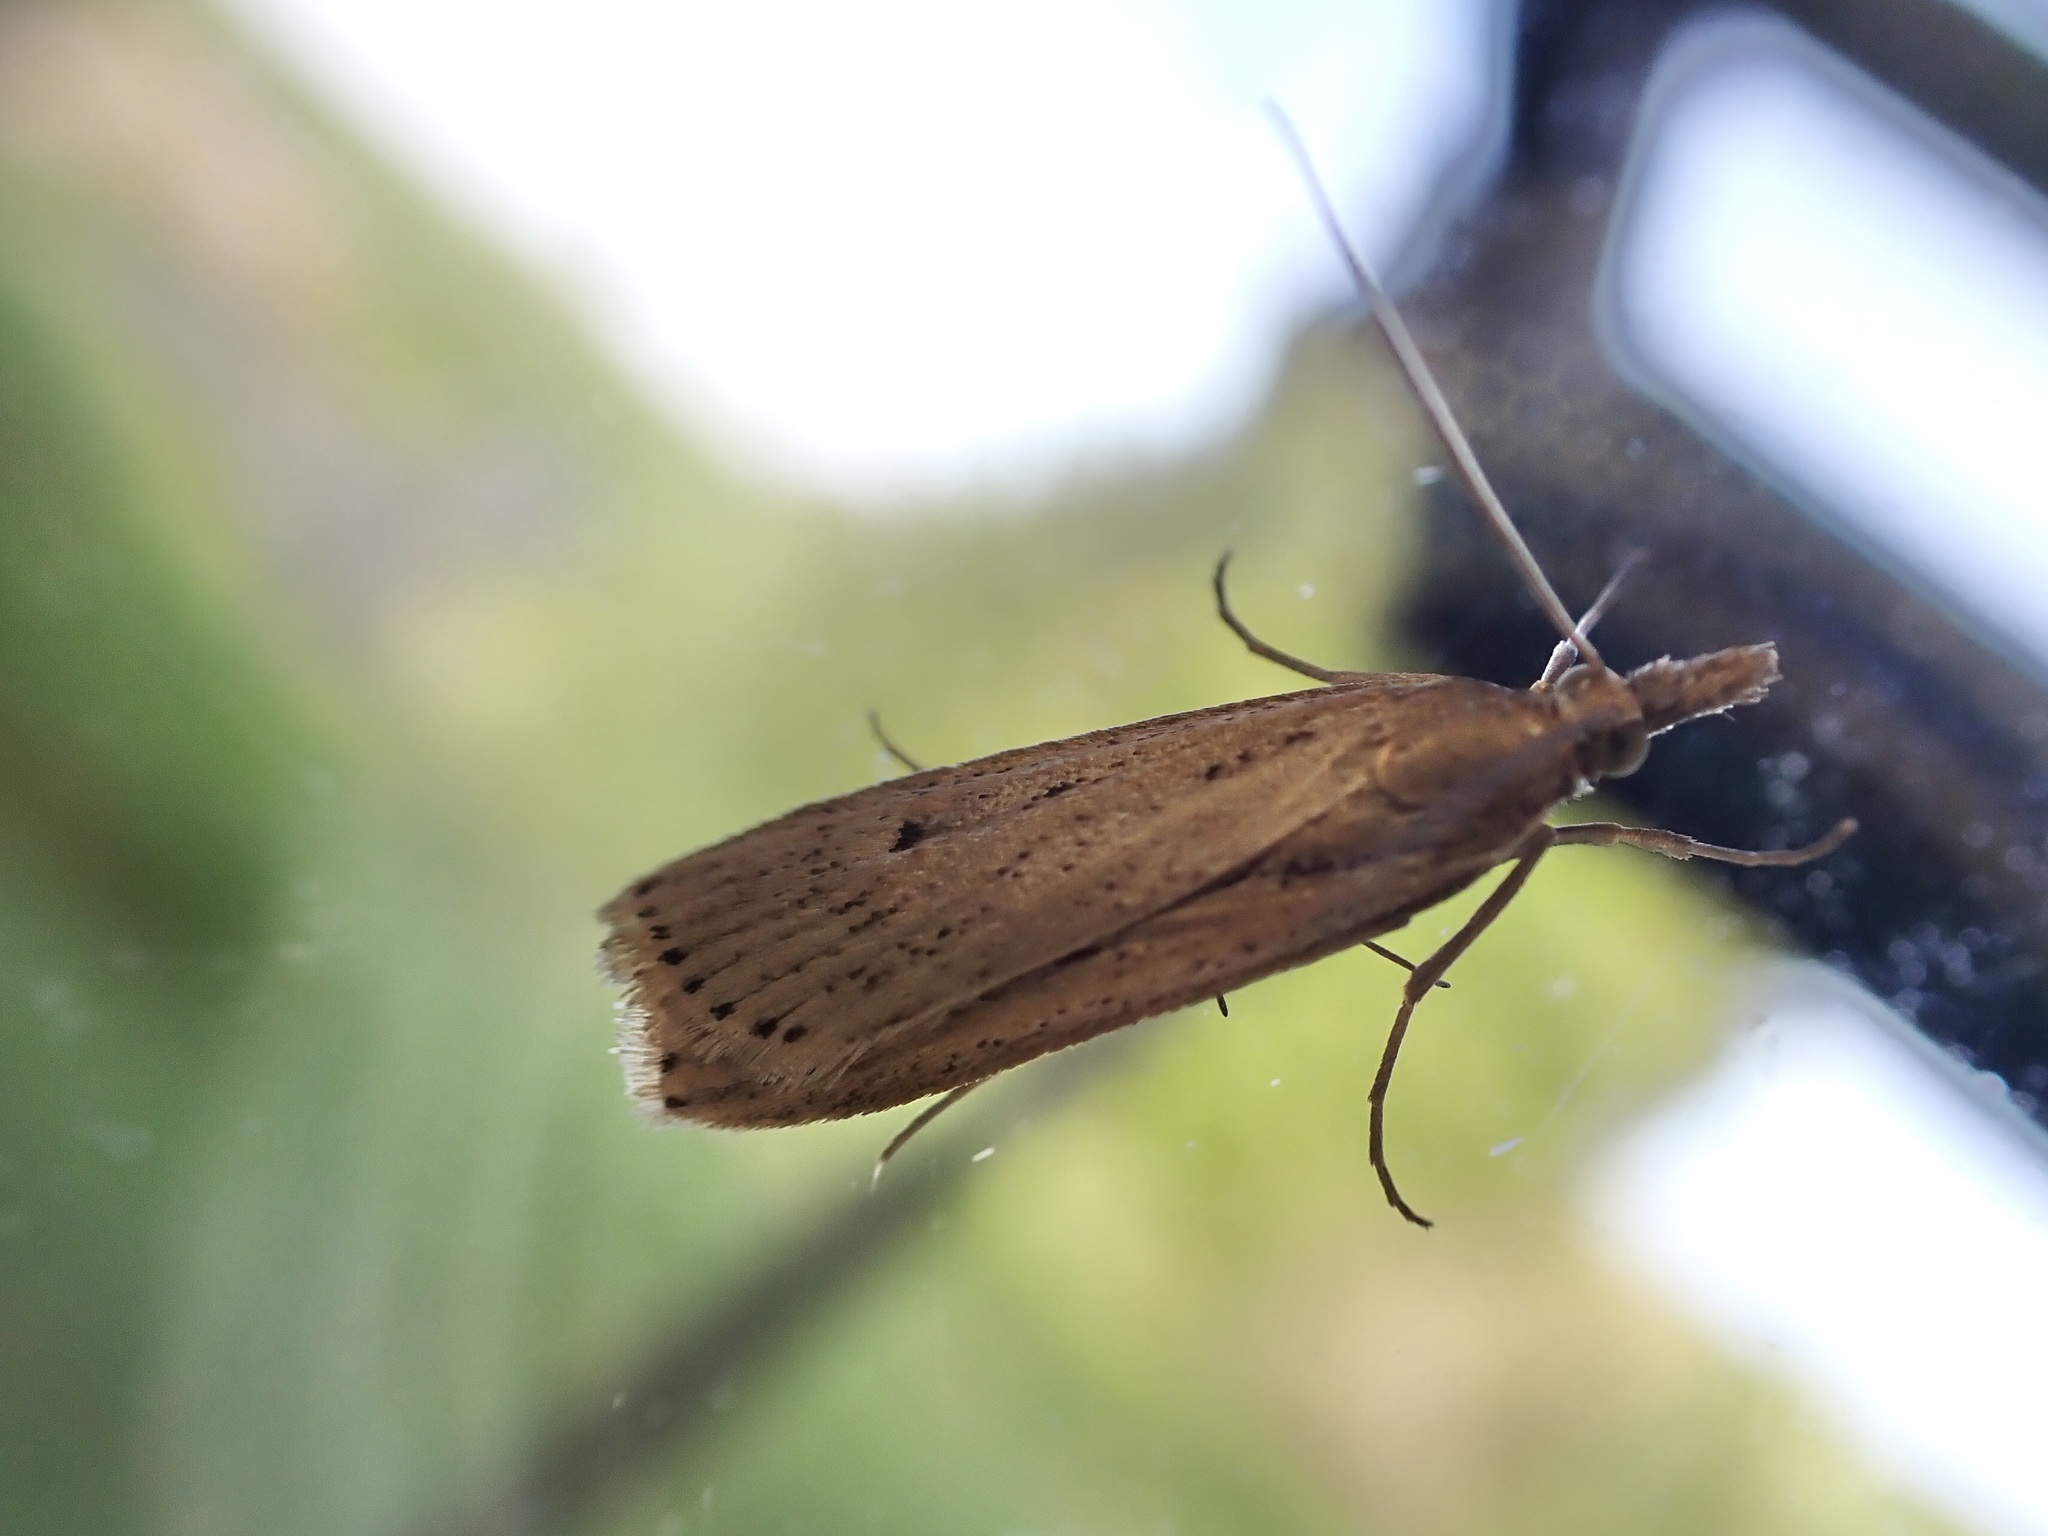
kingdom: Animalia
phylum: Arthropoda
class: Insecta
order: Lepidoptera
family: Crambidae
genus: Eudonia
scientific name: Eudonia sabulosella
